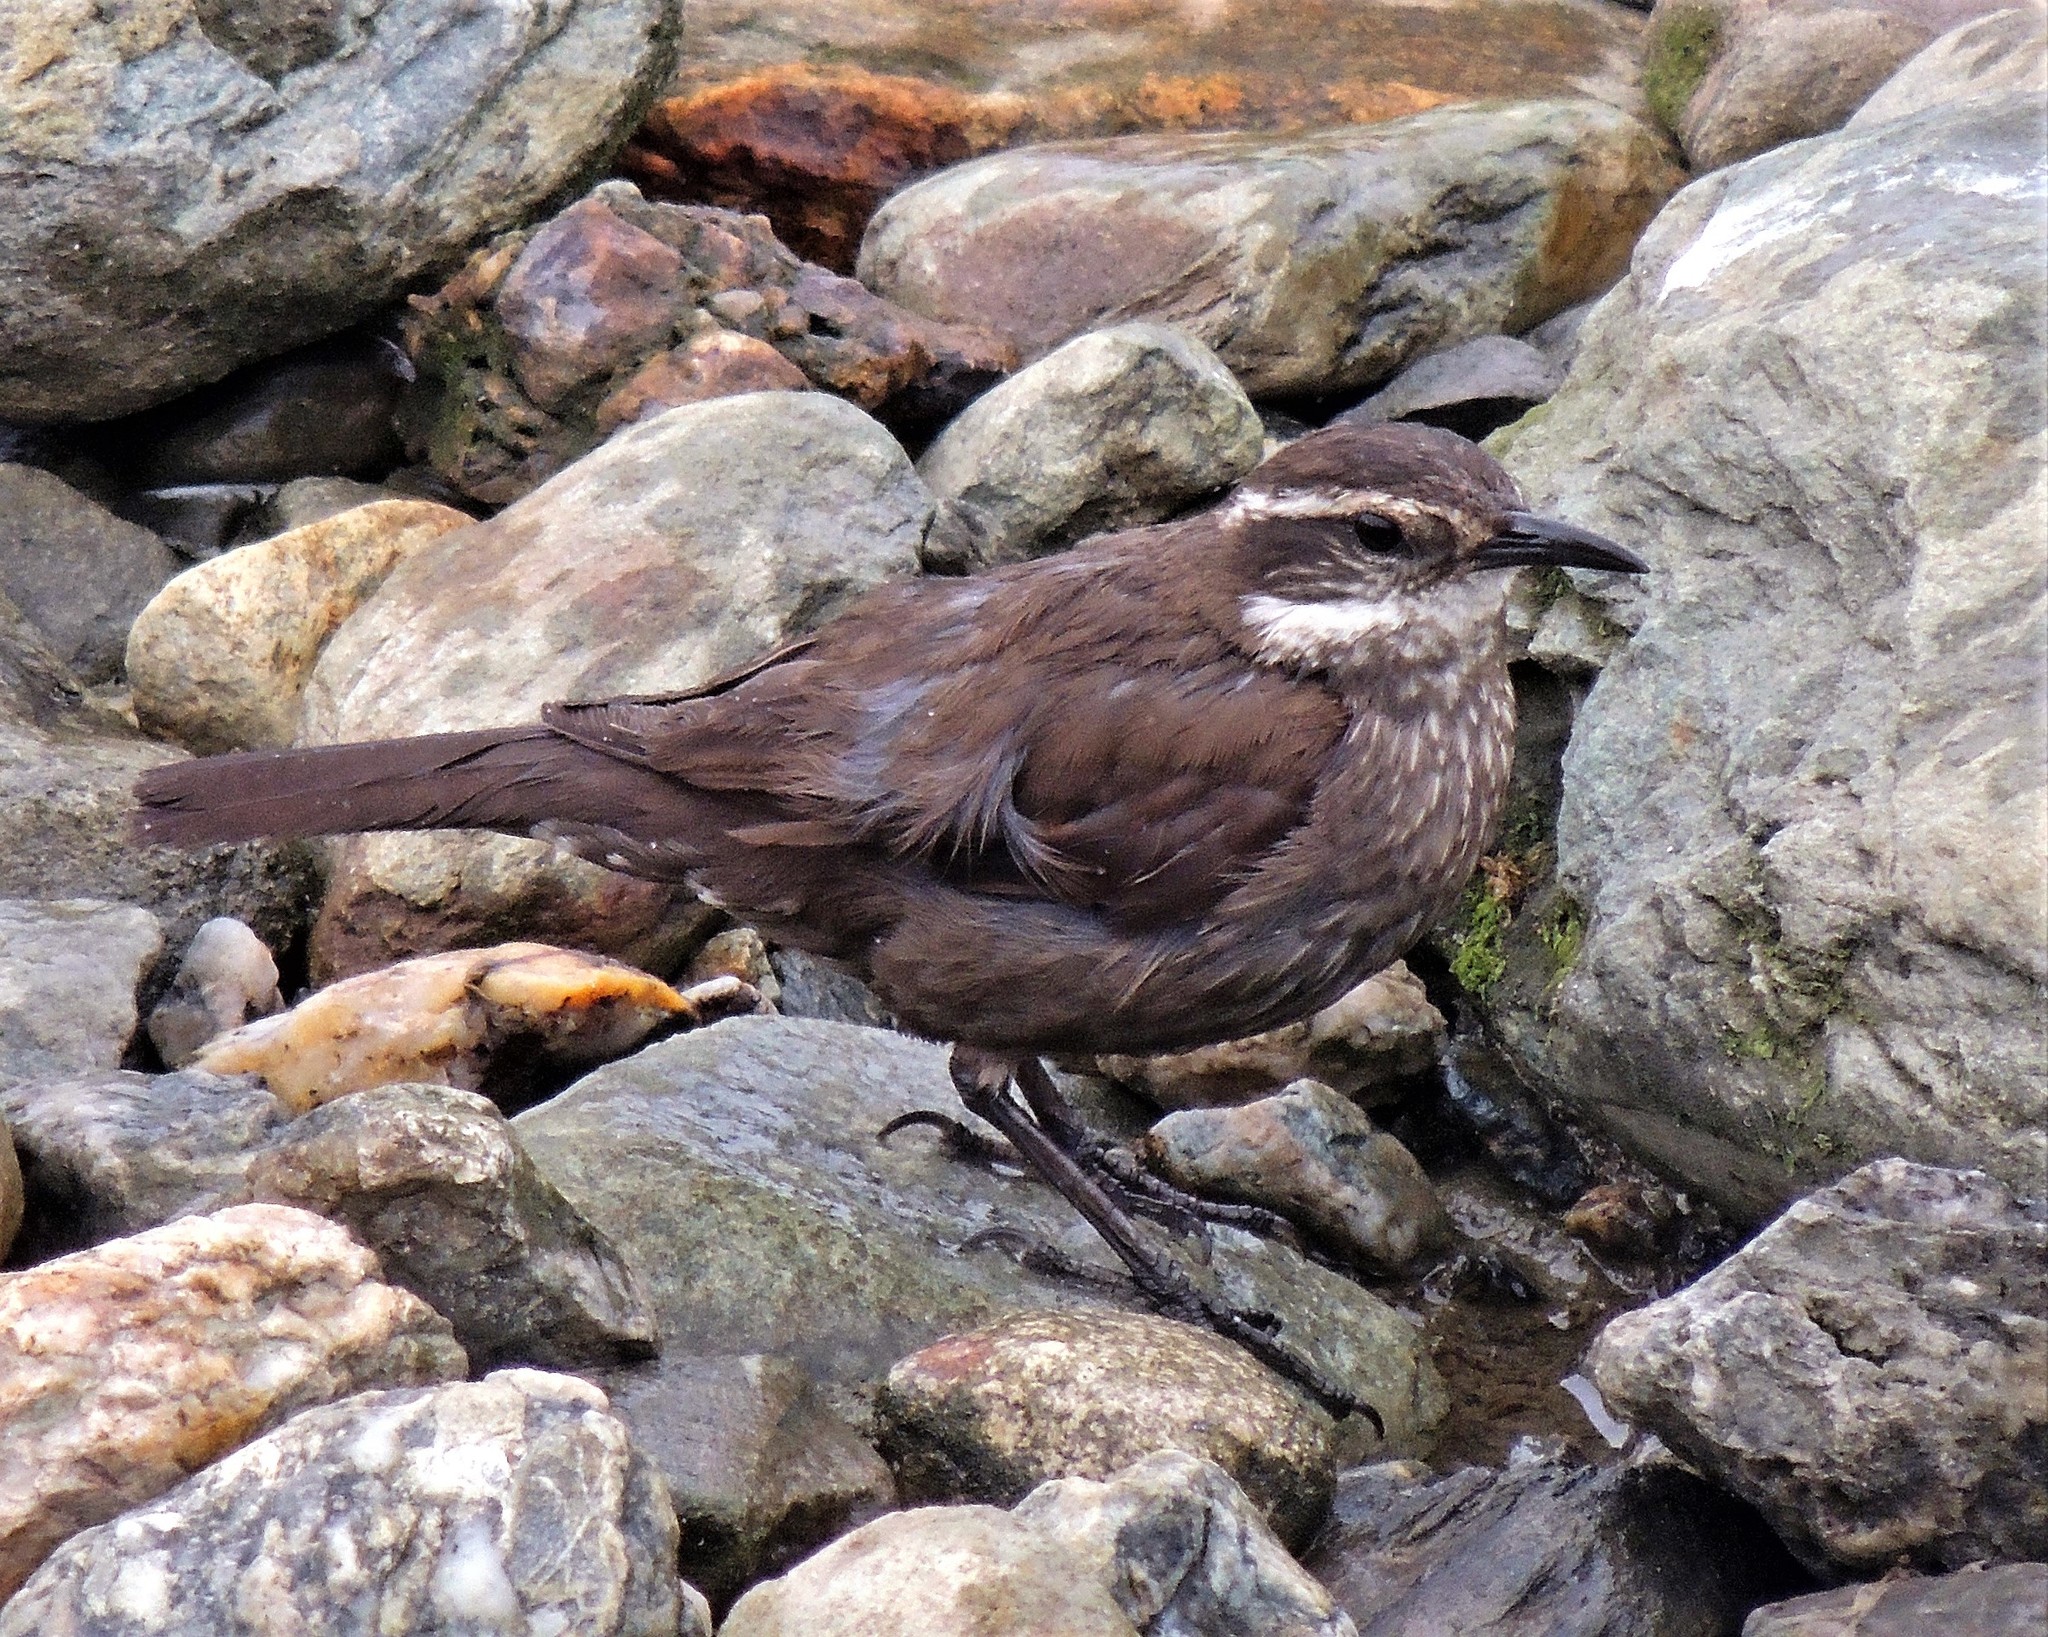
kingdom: Animalia
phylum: Chordata
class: Aves
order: Passeriformes
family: Furnariidae
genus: Cinclodes
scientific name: Cinclodes patagonicus
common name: Dark-bellied cinclodes
